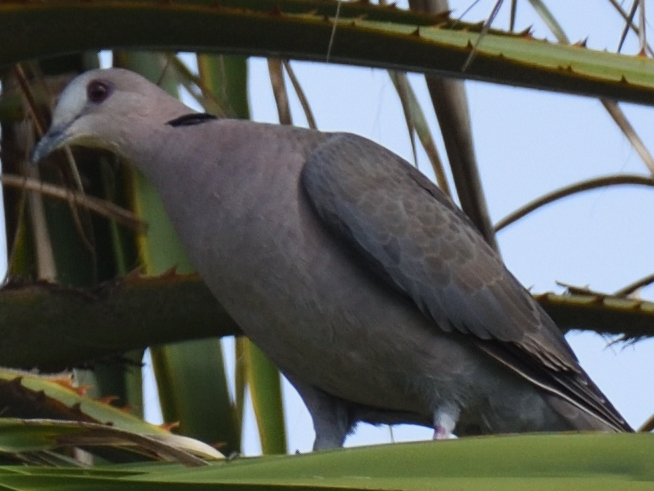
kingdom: Animalia
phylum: Chordata
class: Aves
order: Columbiformes
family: Columbidae
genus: Streptopelia
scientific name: Streptopelia semitorquata
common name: Red-eyed dove
